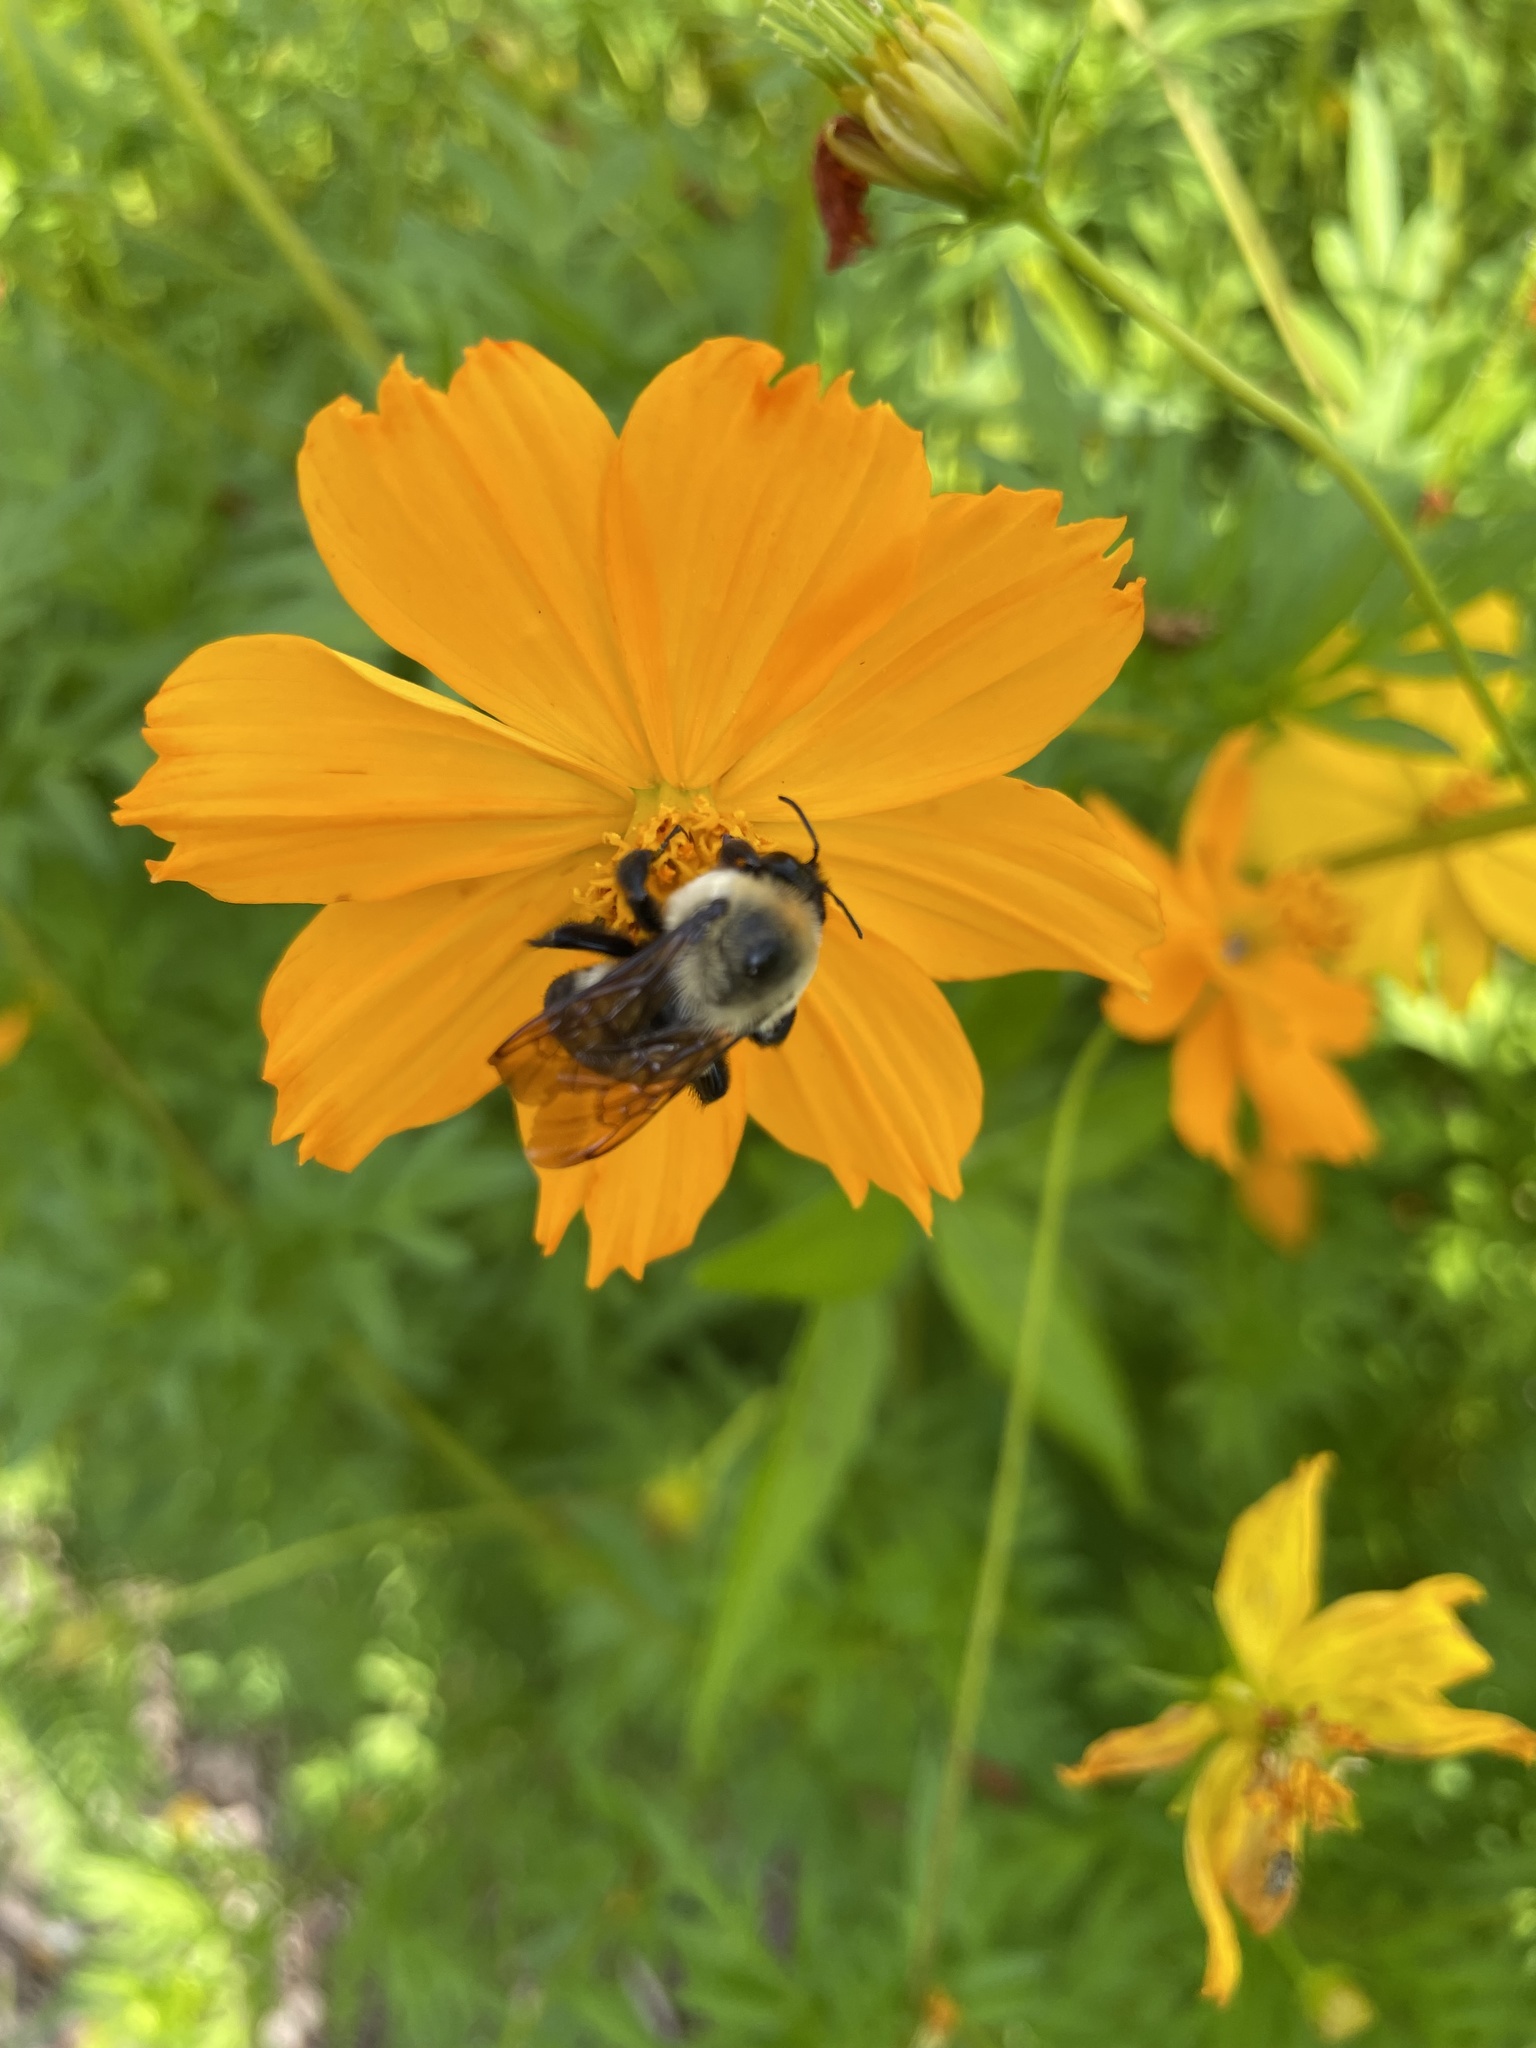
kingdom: Animalia
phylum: Arthropoda
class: Insecta
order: Hymenoptera
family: Apidae
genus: Bombus
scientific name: Bombus griseocollis
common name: Brown-belted bumble bee
